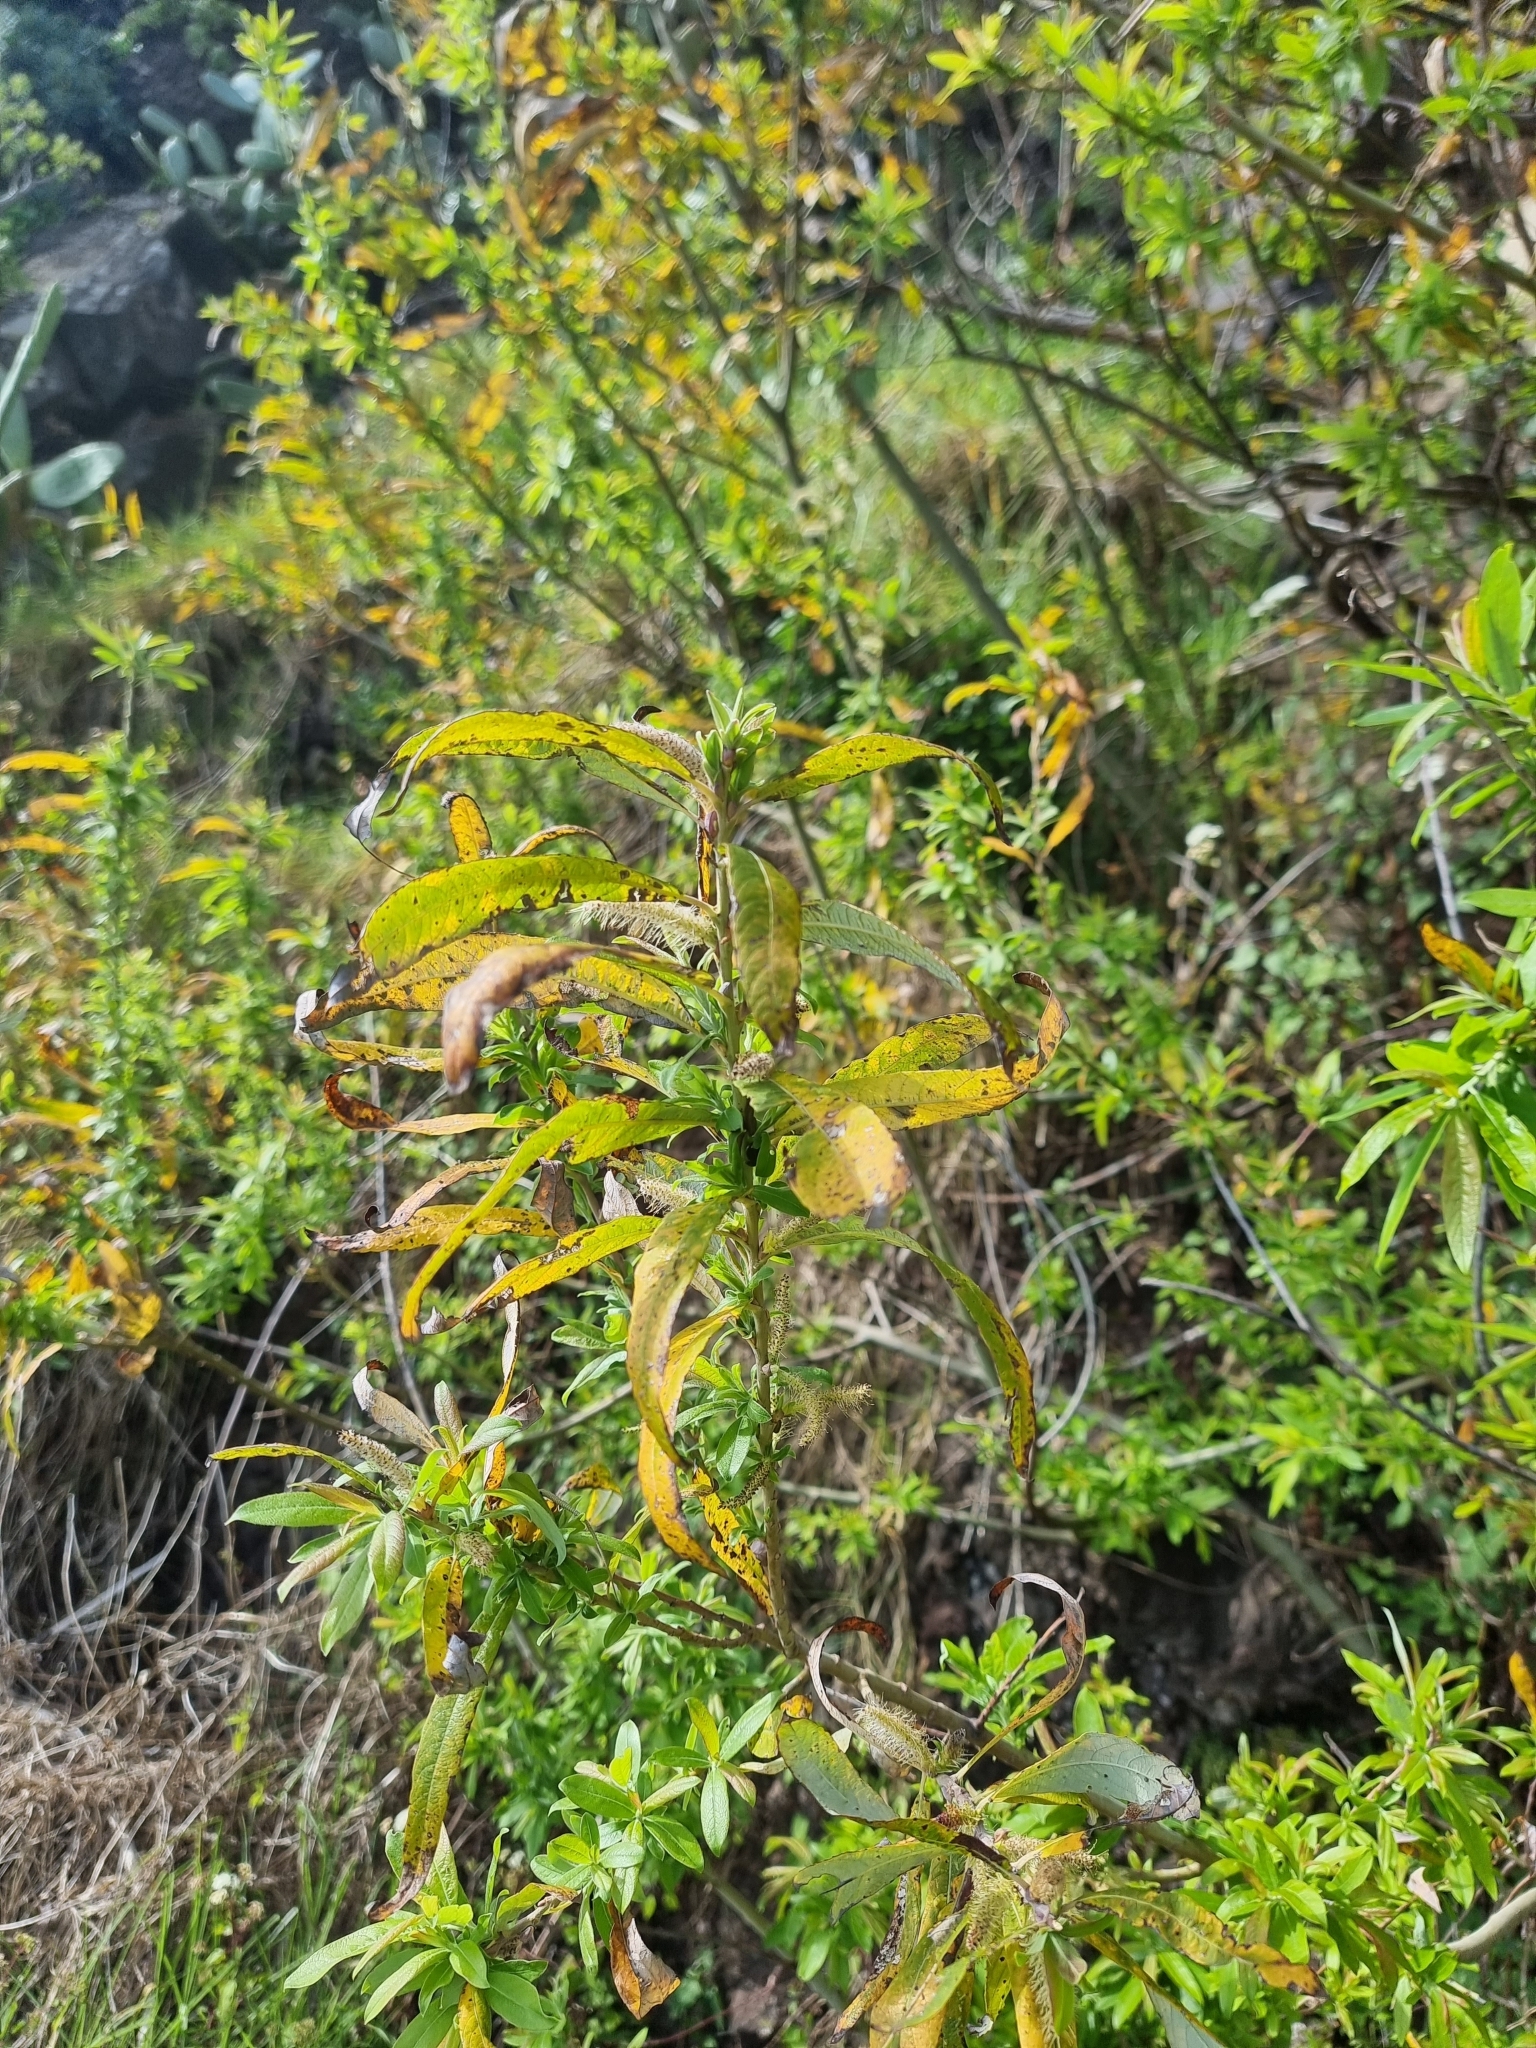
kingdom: Plantae
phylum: Tracheophyta
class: Magnoliopsida
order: Malpighiales
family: Salicaceae
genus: Salix
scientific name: Salix canariensis
